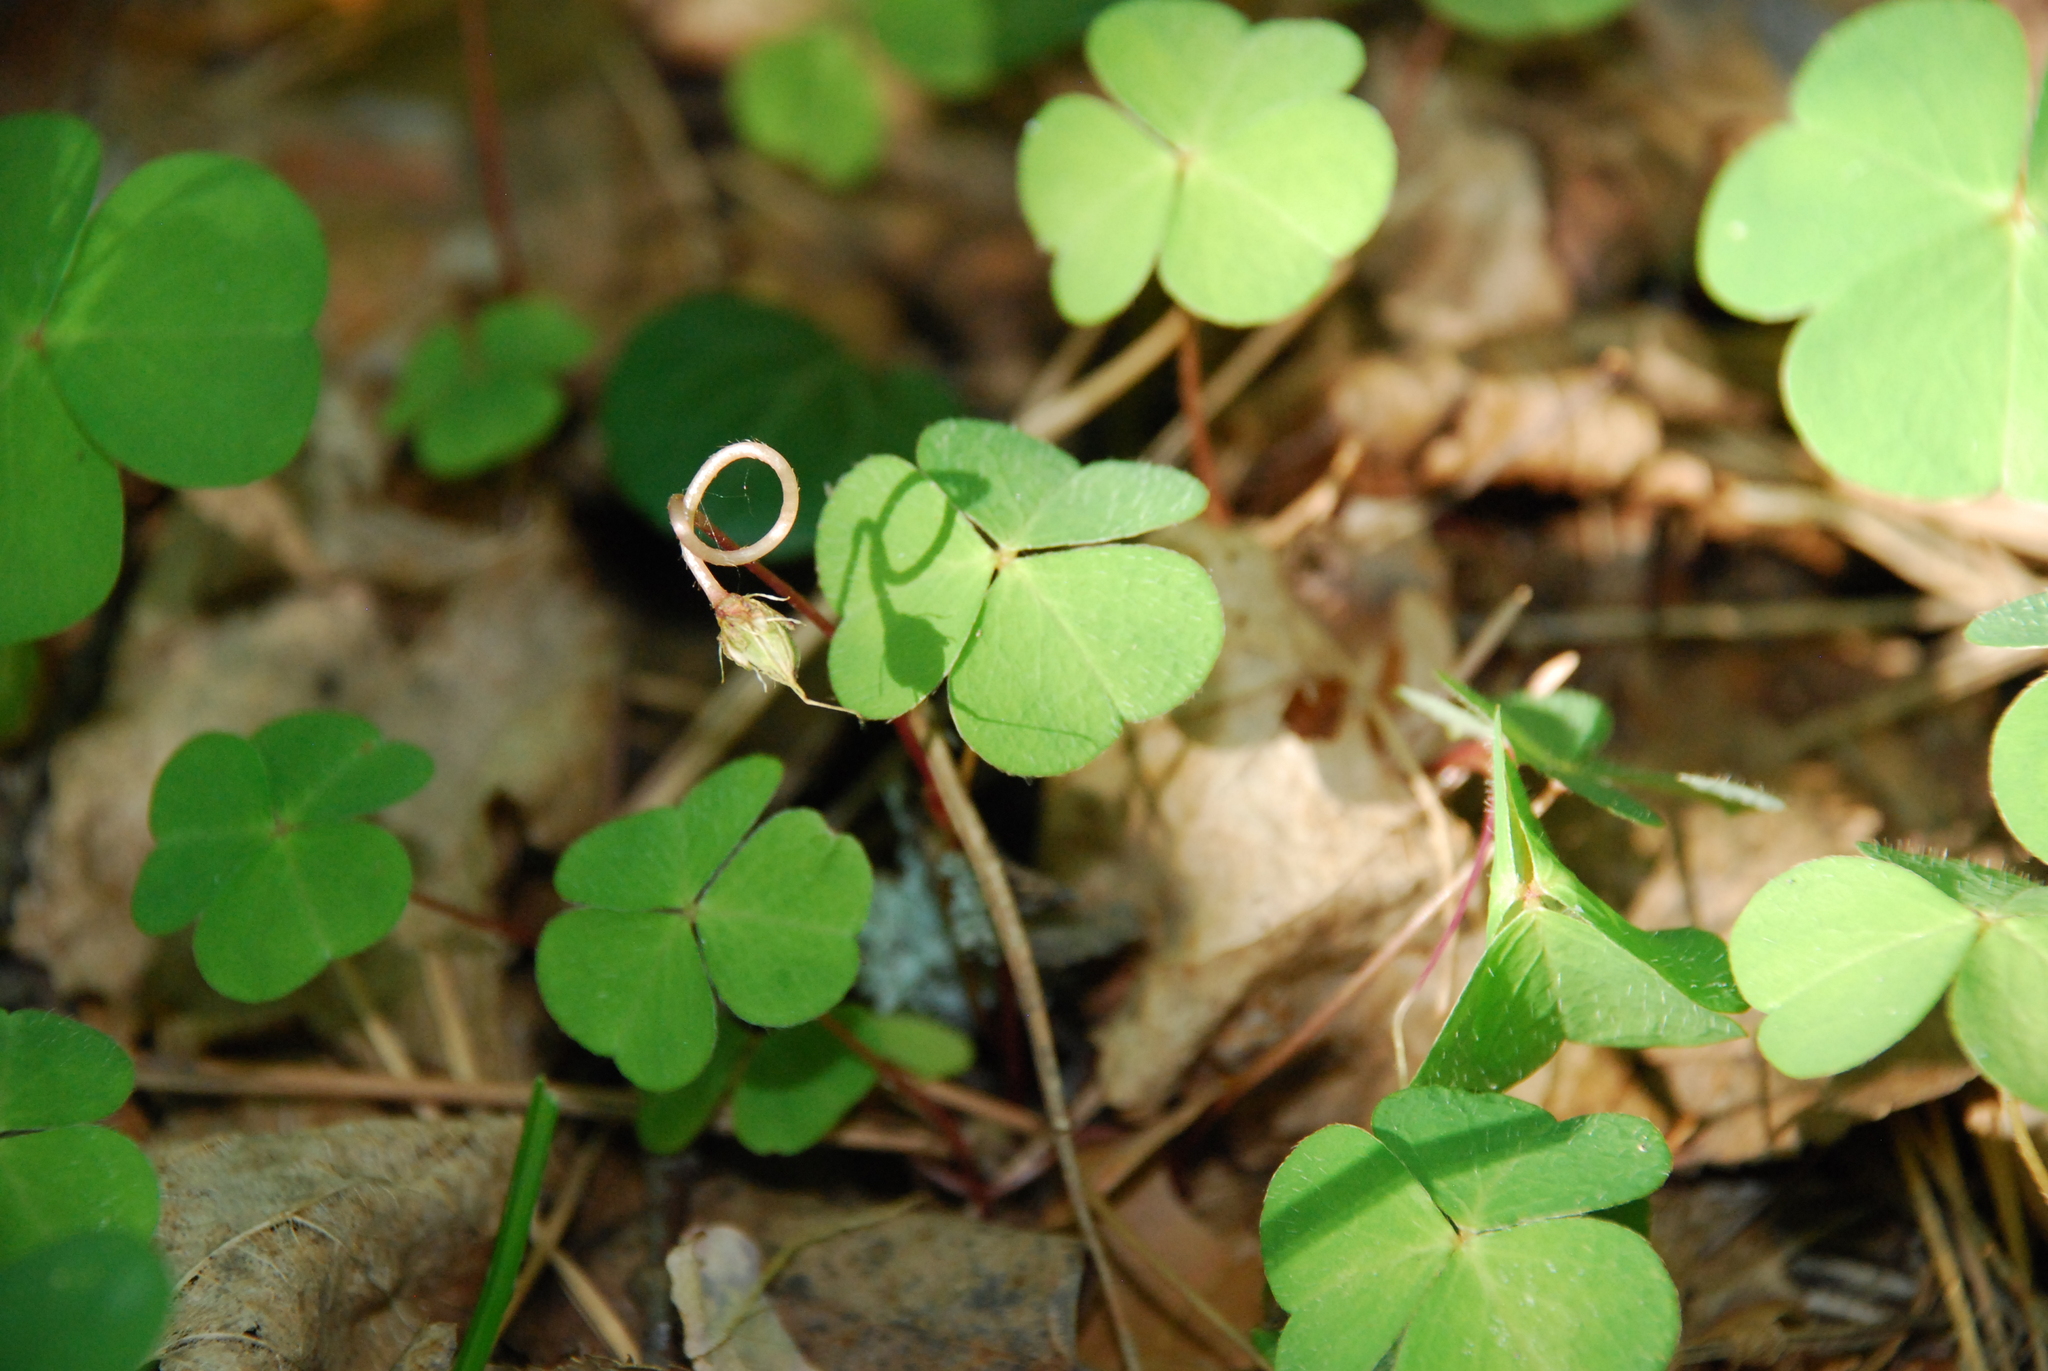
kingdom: Plantae
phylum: Tracheophyta
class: Magnoliopsida
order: Oxalidales
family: Oxalidaceae
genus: Oxalis
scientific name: Oxalis acetosella
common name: Wood-sorrel
